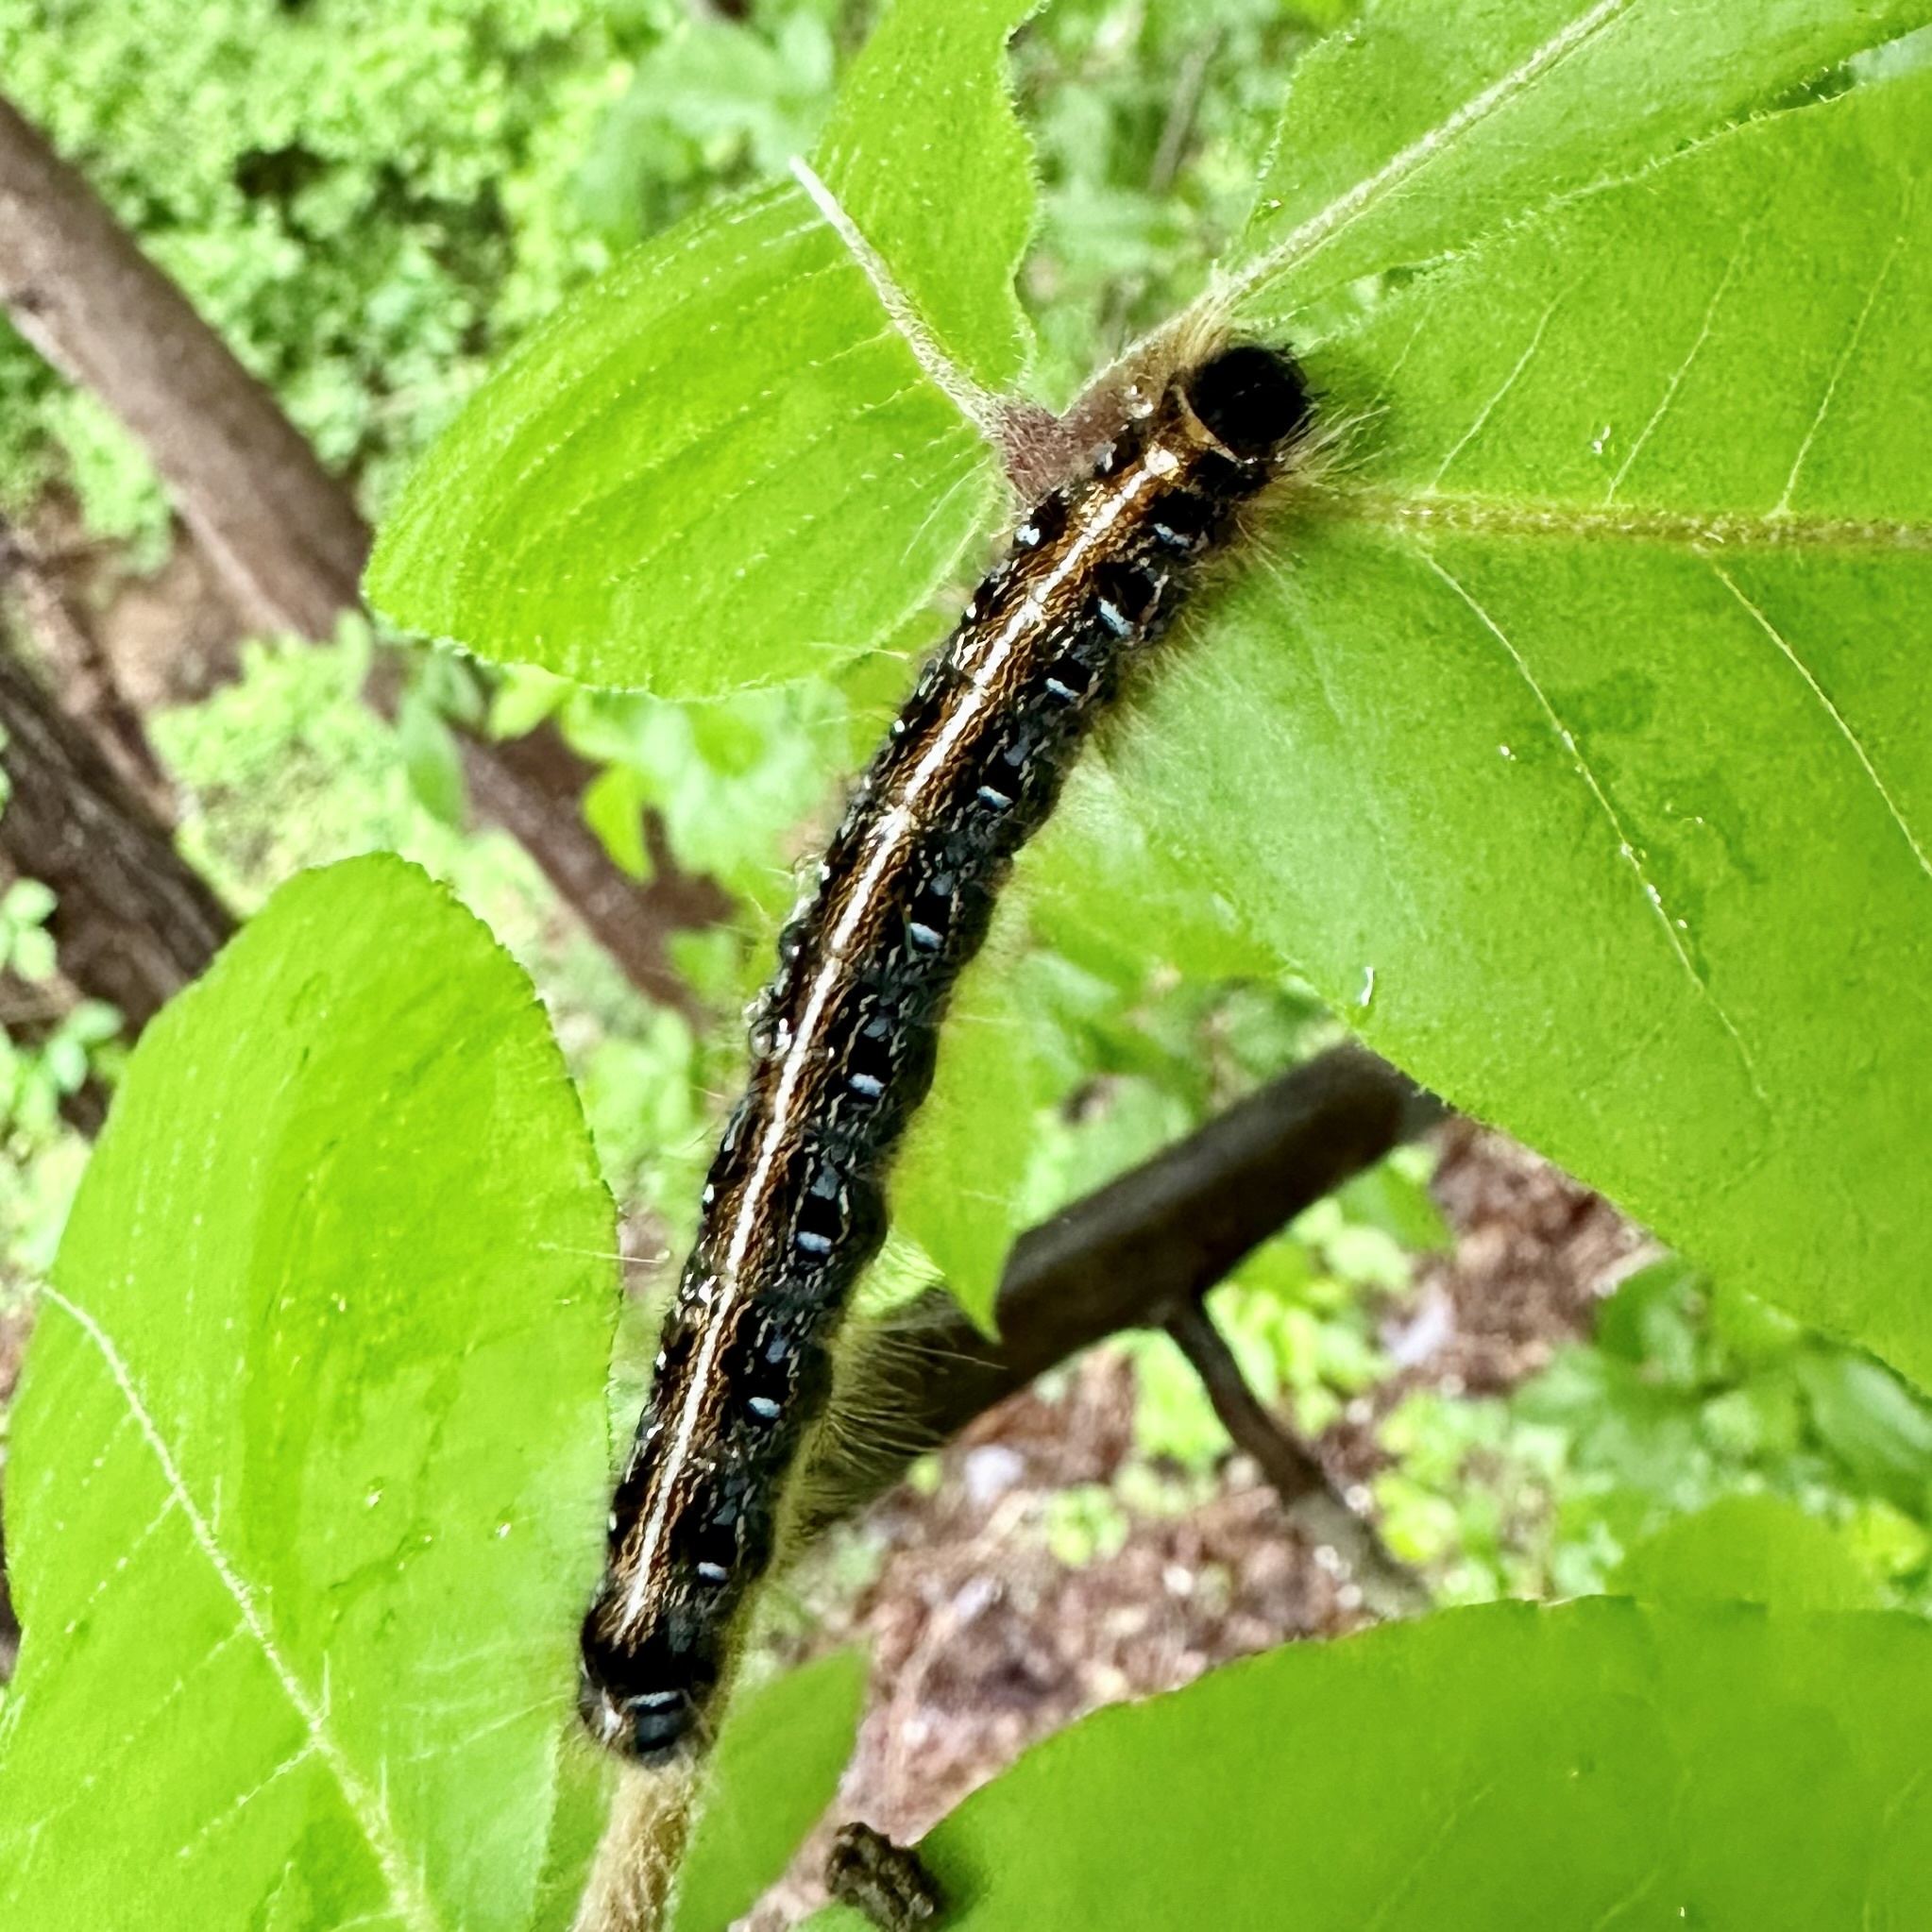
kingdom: Animalia
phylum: Arthropoda
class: Insecta
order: Lepidoptera
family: Lasiocampidae
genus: Malacosoma
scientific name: Malacosoma americana
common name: Eastern tent caterpillar moth
